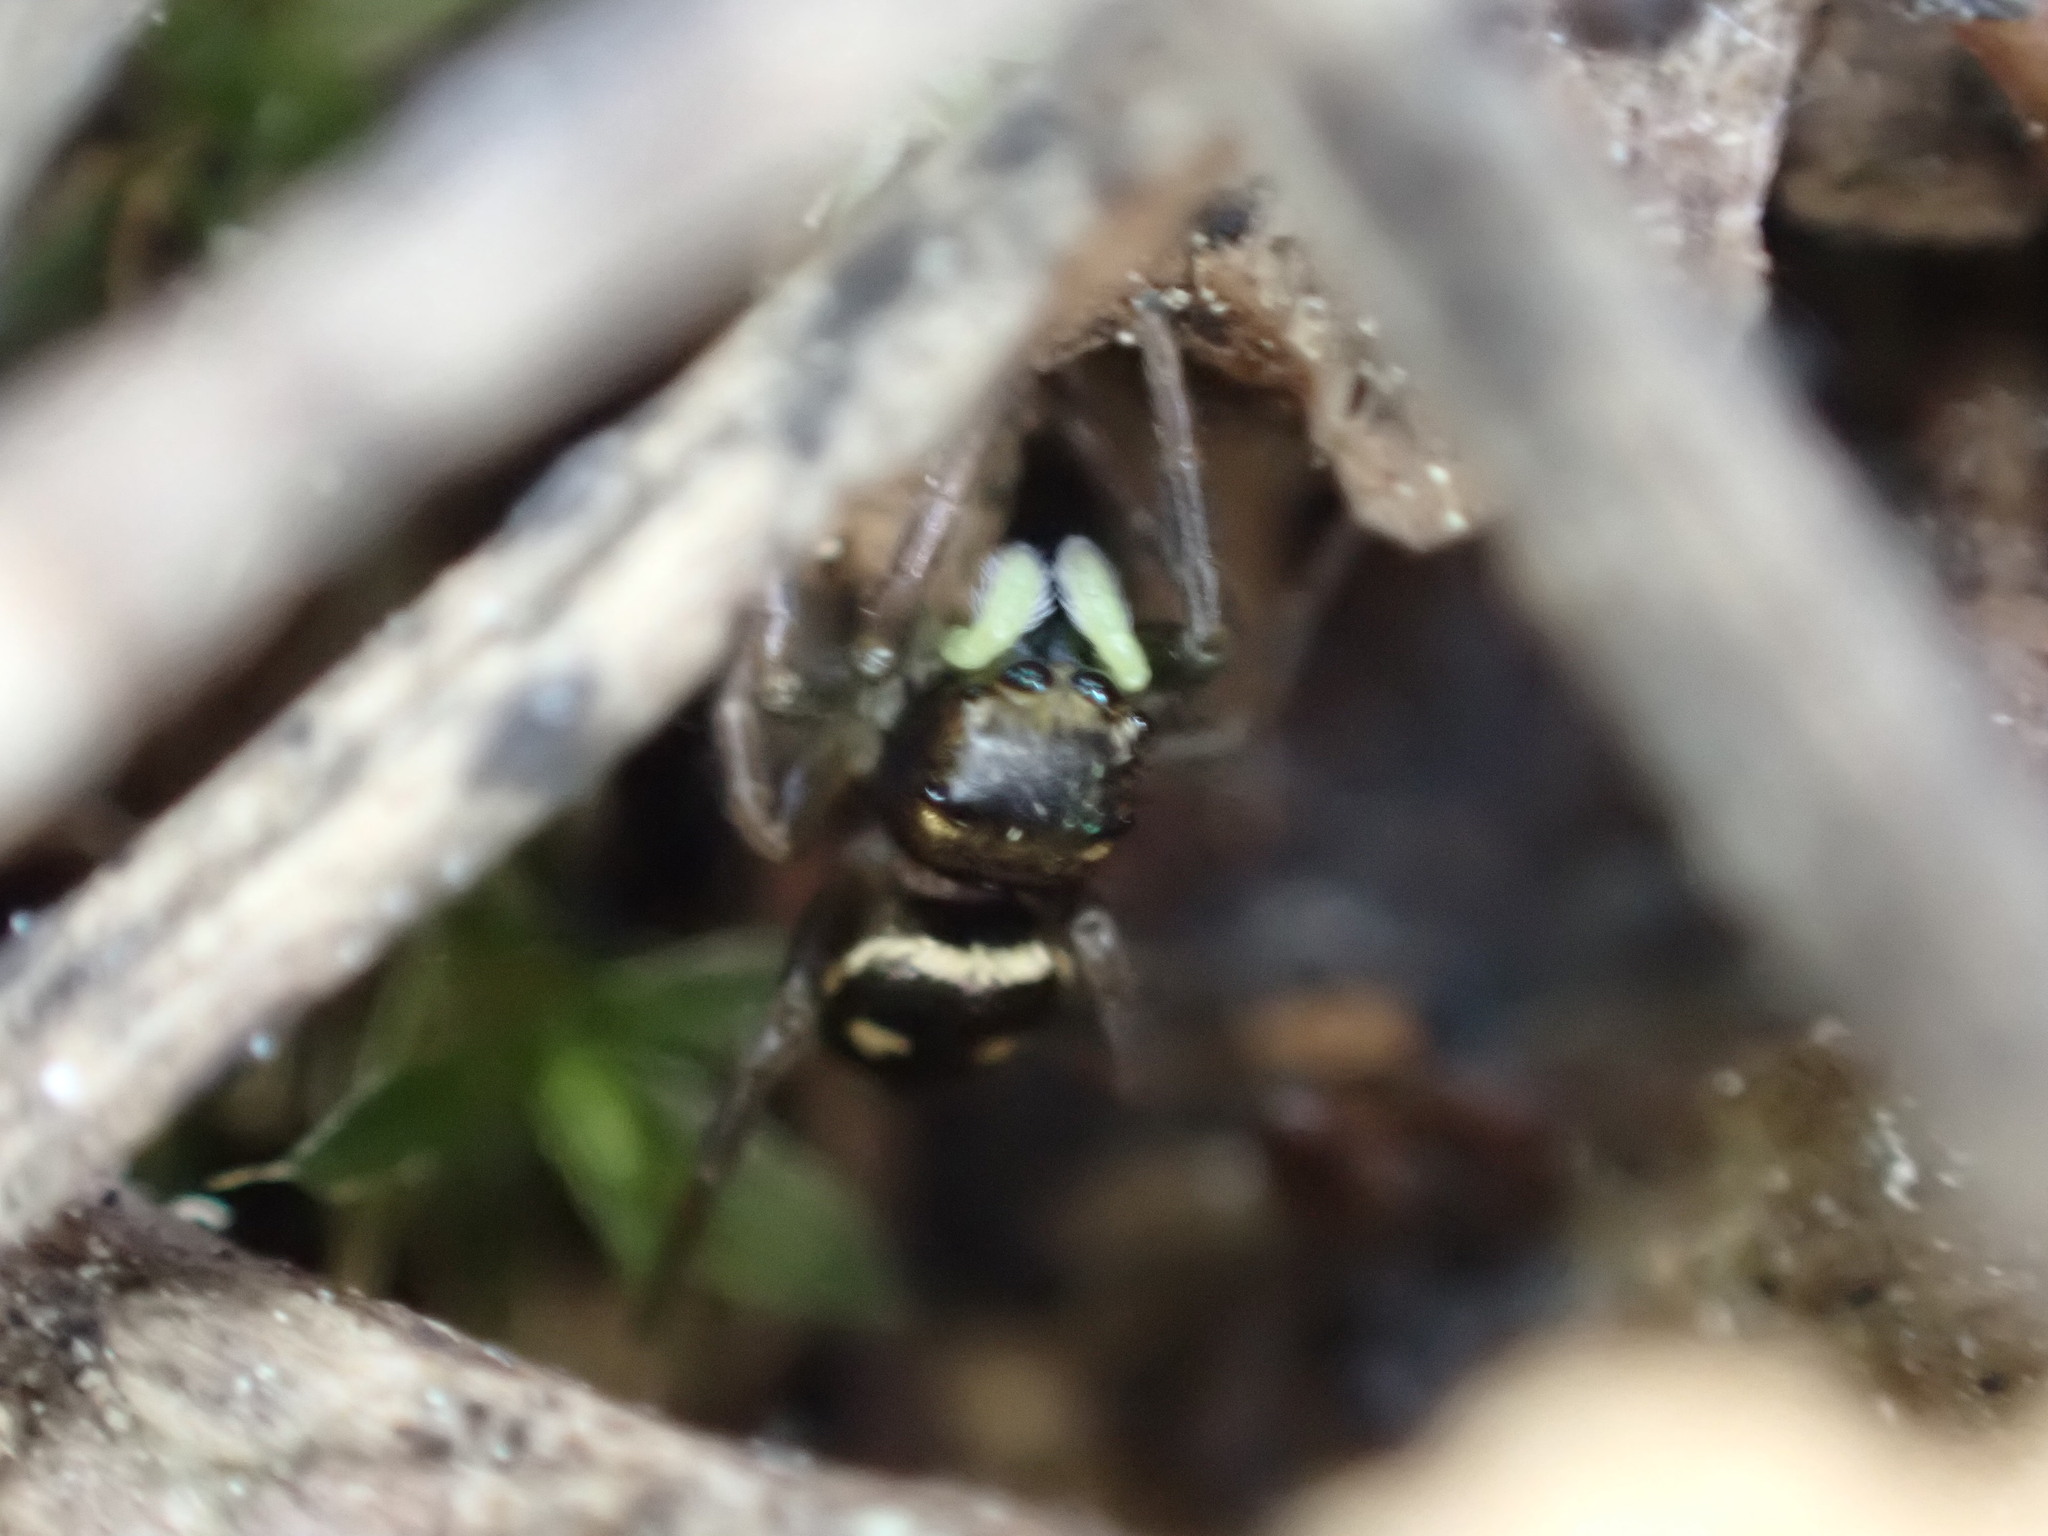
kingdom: Animalia
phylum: Arthropoda
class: Arachnida
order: Araneae
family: Salticidae
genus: Heliophanus
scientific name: Heliophanus apiatus
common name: Sun jumping spider
